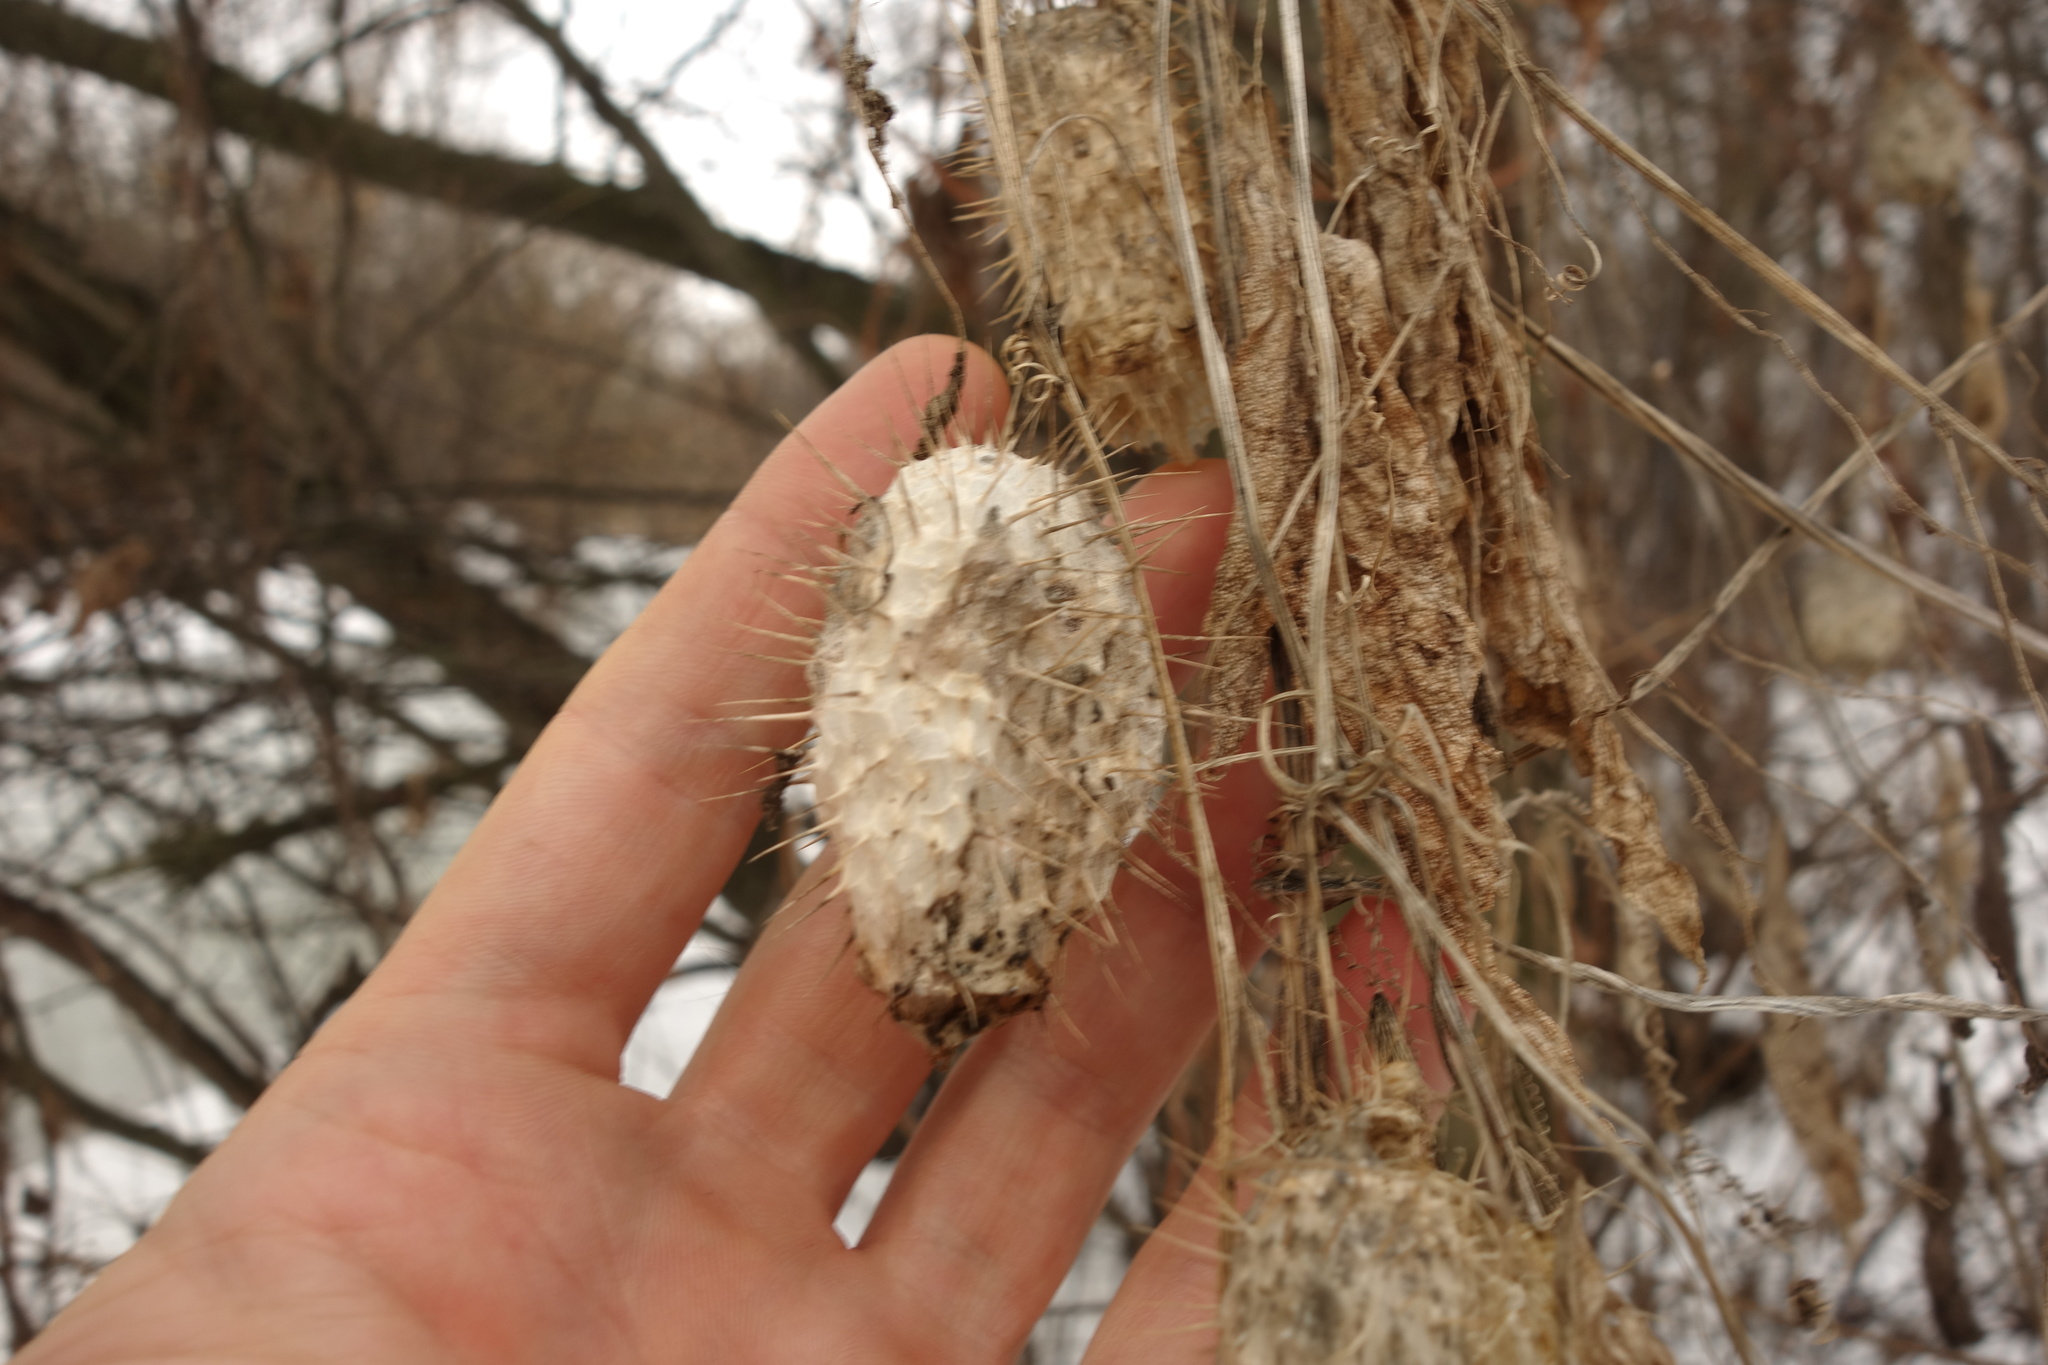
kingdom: Plantae
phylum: Tracheophyta
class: Magnoliopsida
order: Cucurbitales
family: Cucurbitaceae
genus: Echinocystis
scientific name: Echinocystis lobata
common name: Wild cucumber
